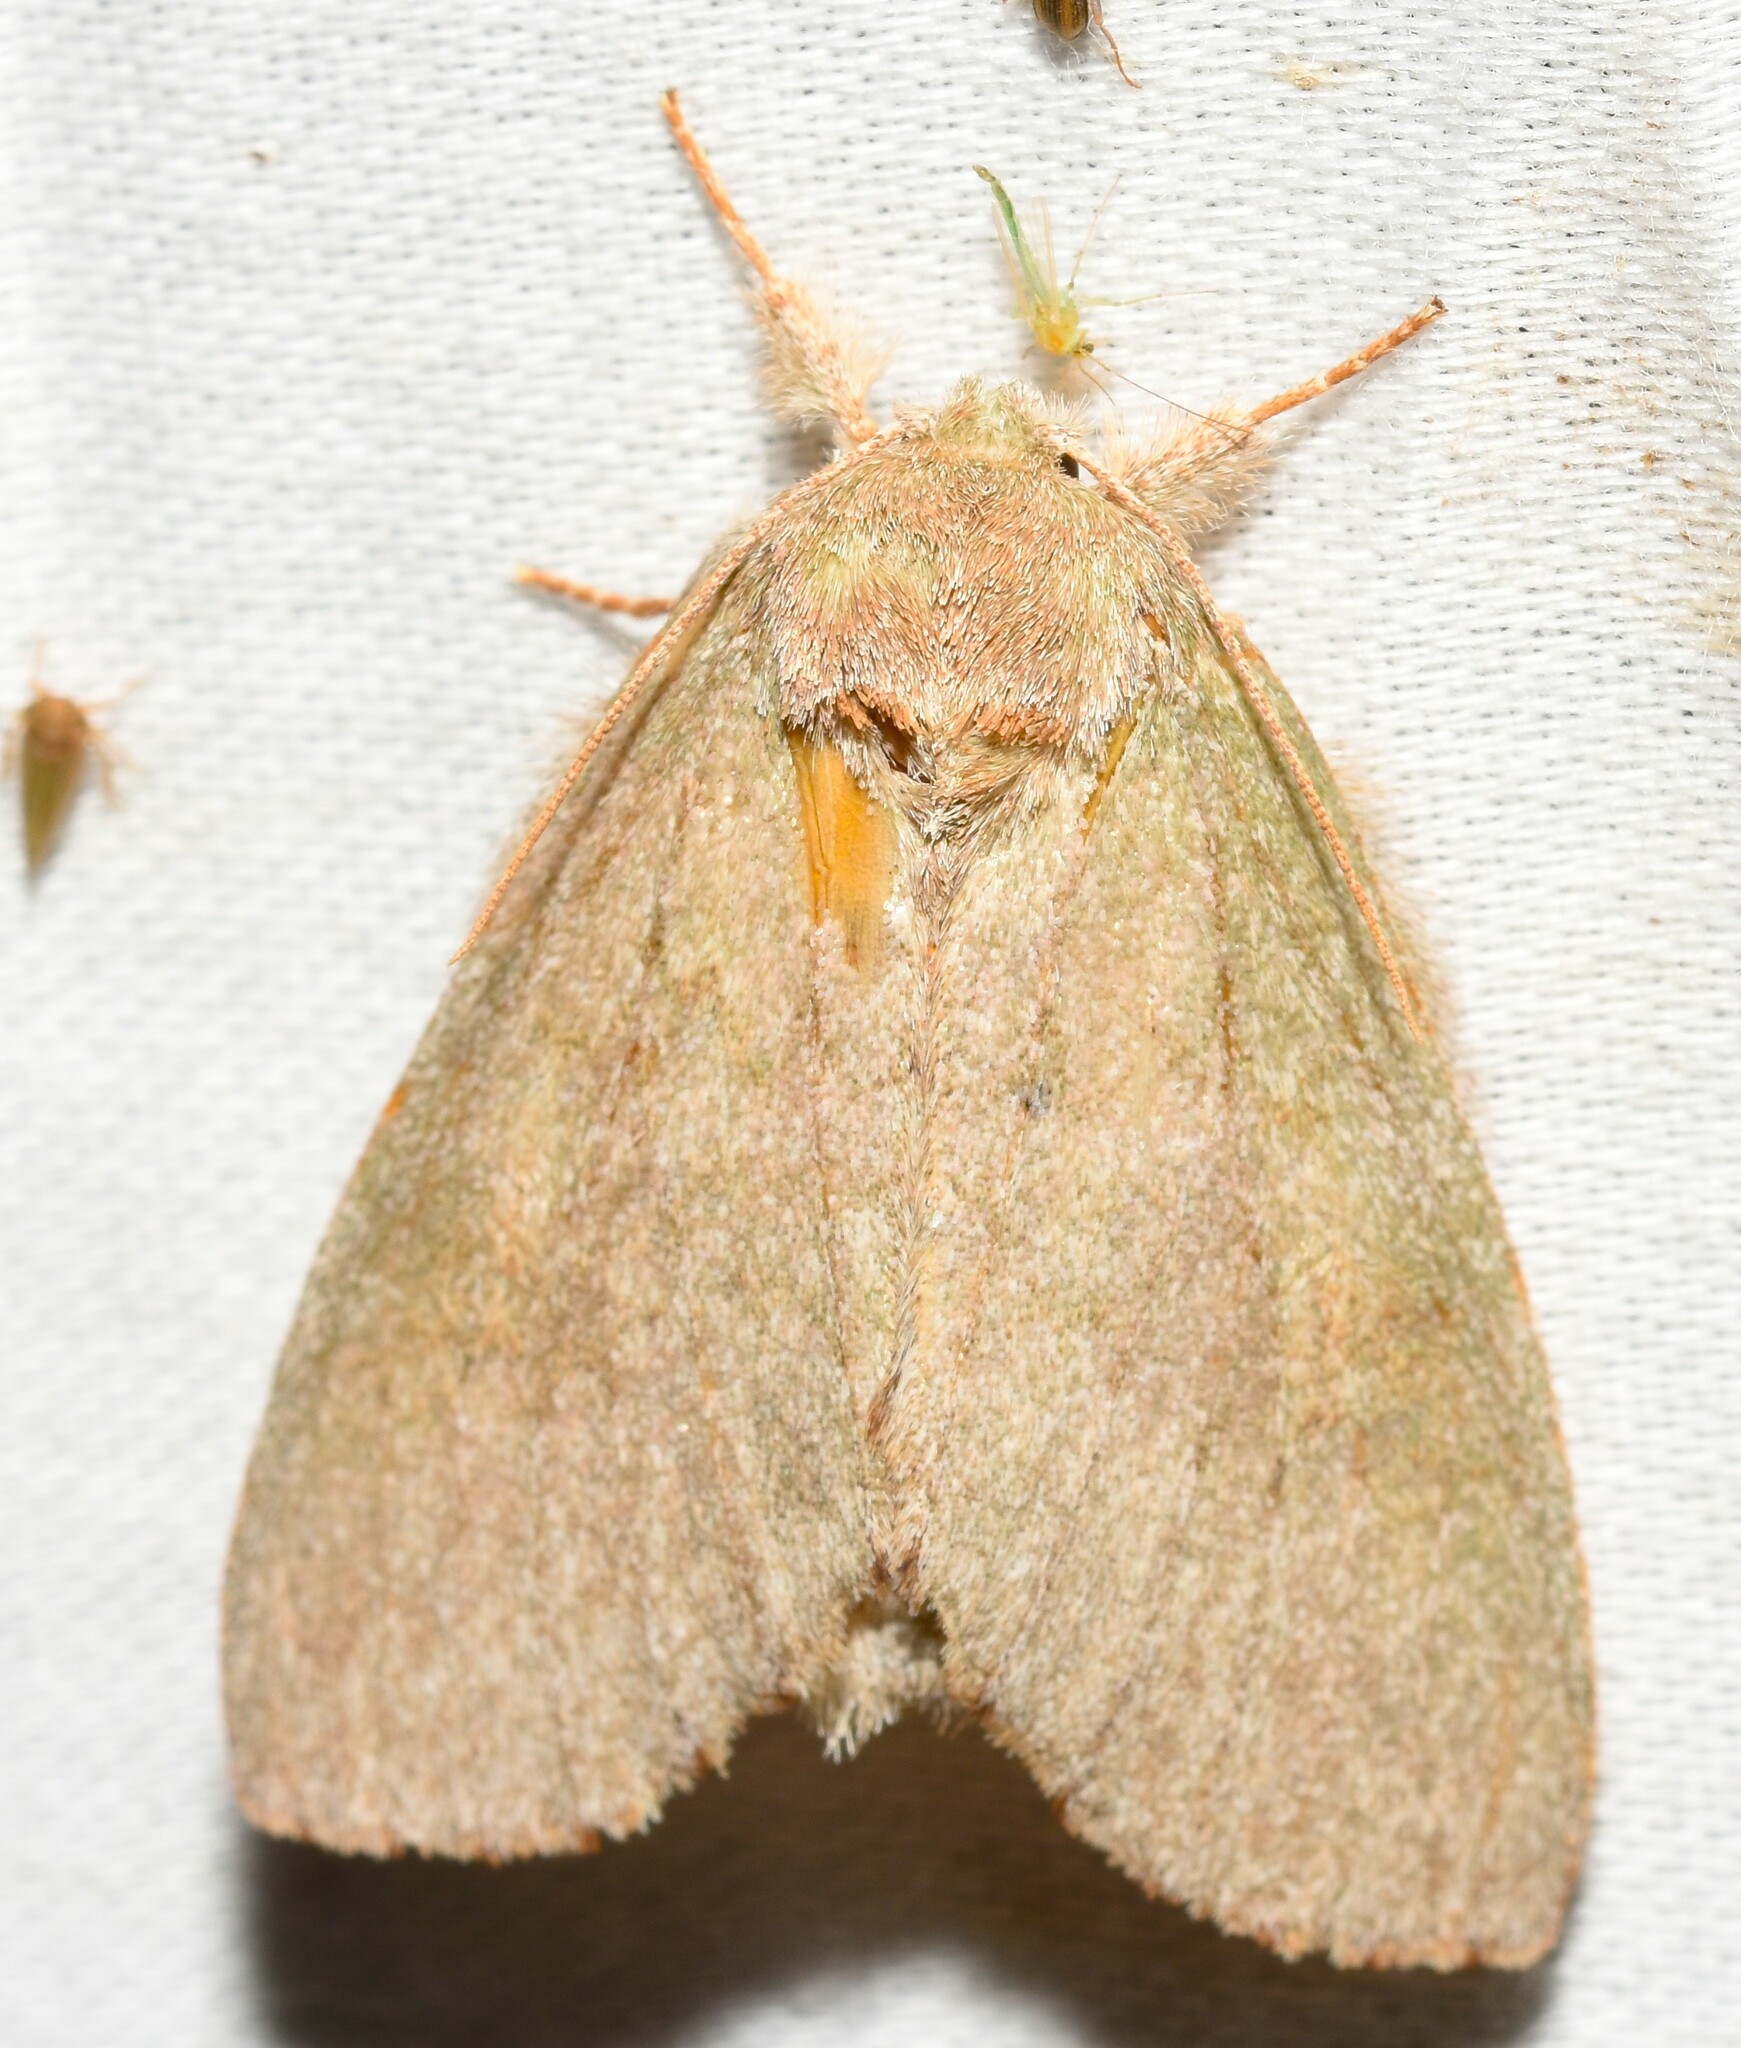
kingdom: Animalia
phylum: Arthropoda
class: Insecta
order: Lepidoptera
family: Notodontidae
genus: Misogada
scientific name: Misogada unicolor
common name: Drab prominent
